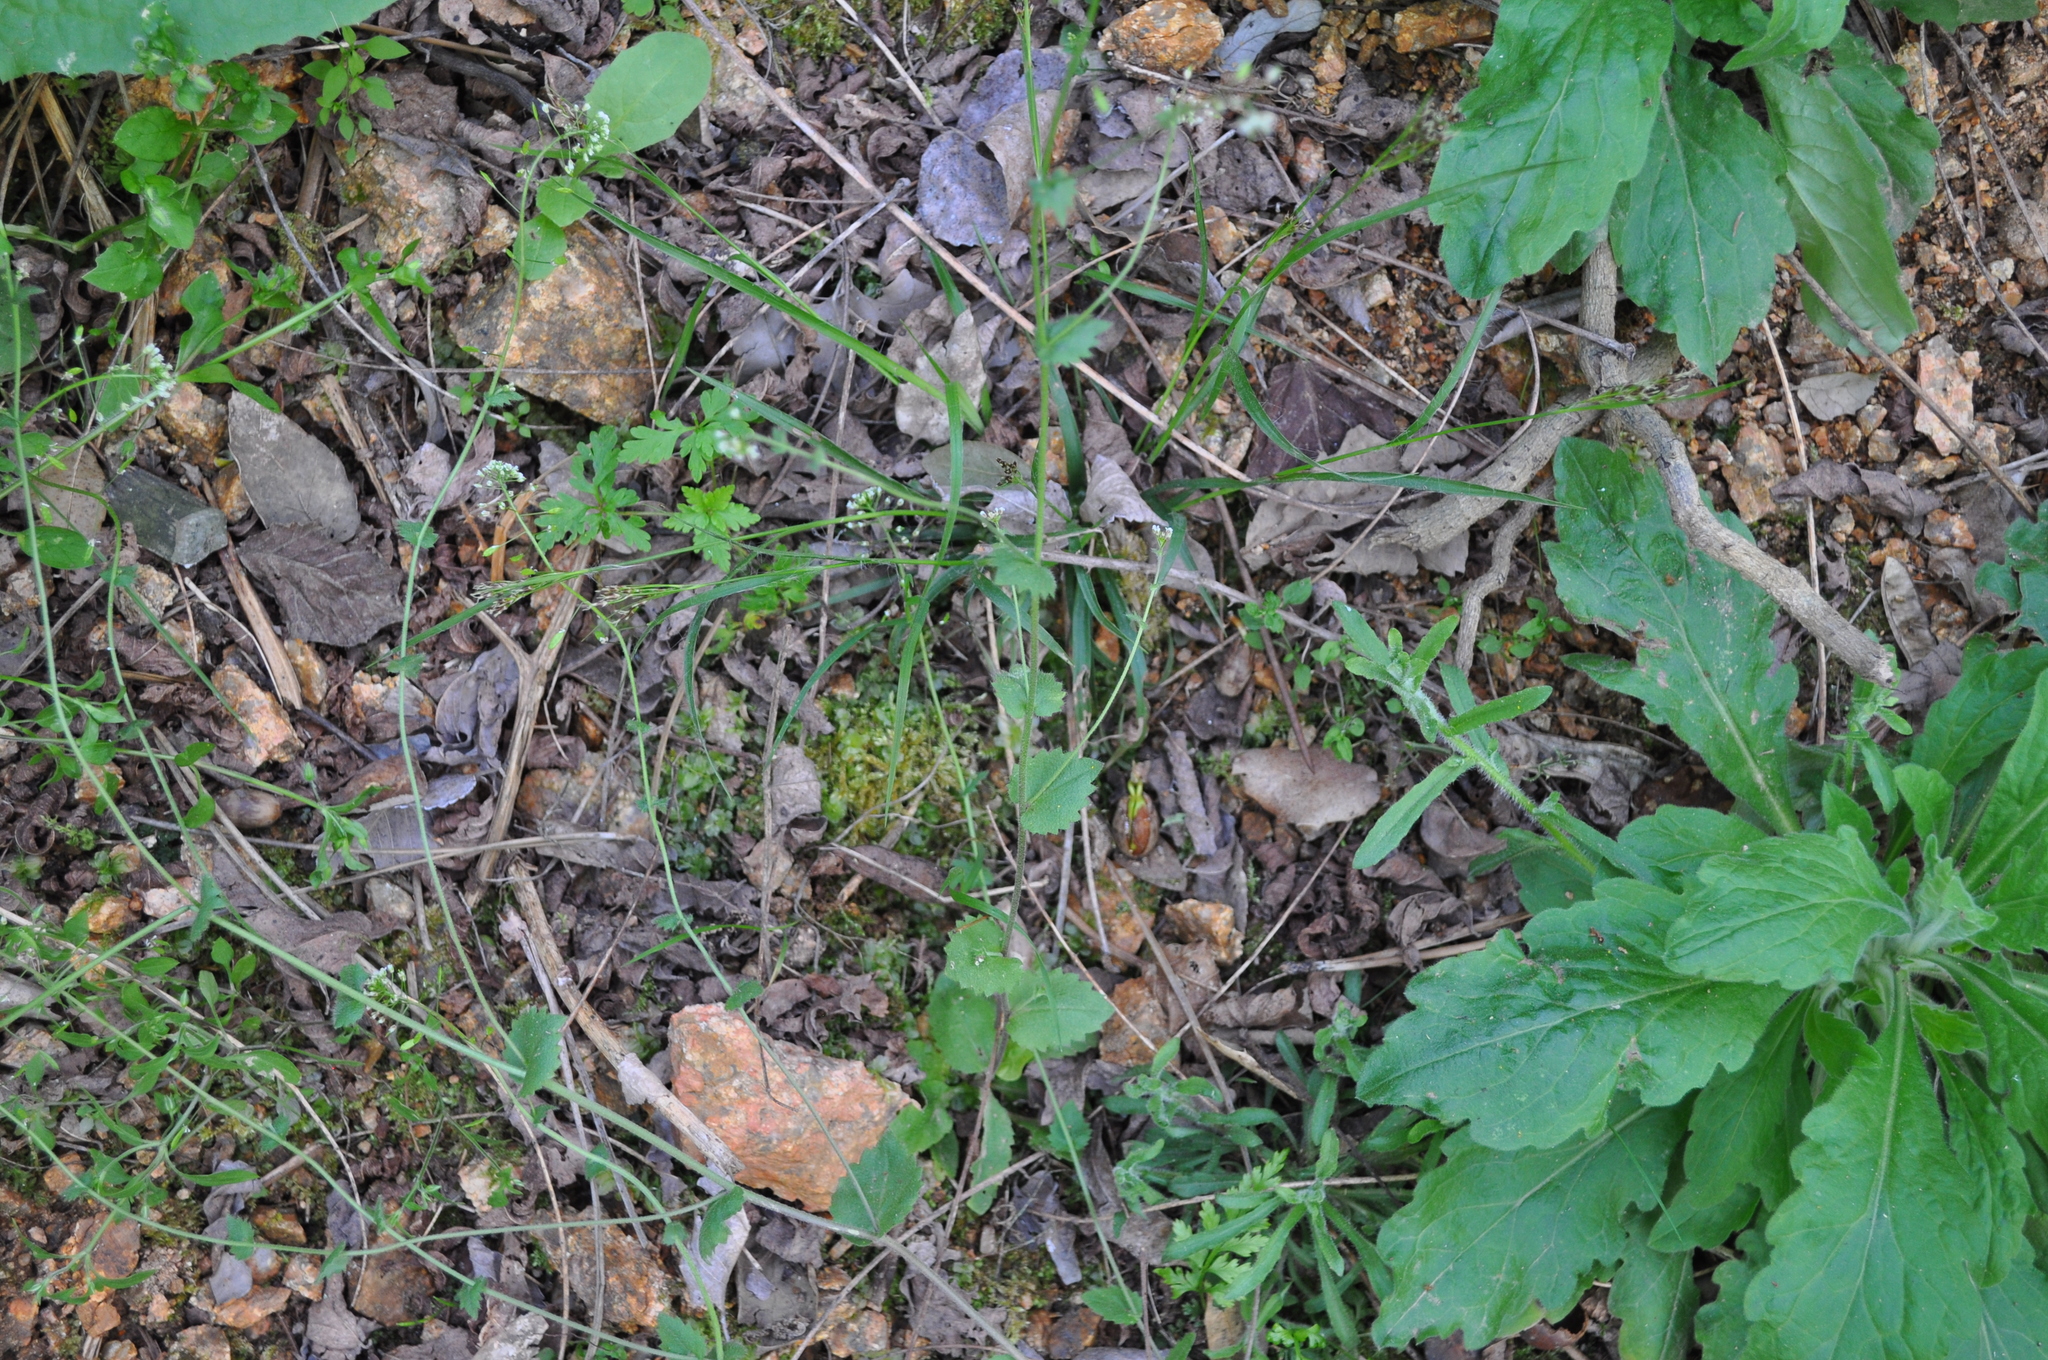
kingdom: Plantae
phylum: Tracheophyta
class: Magnoliopsida
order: Brassicales
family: Brassicaceae
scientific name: Brassicaceae
